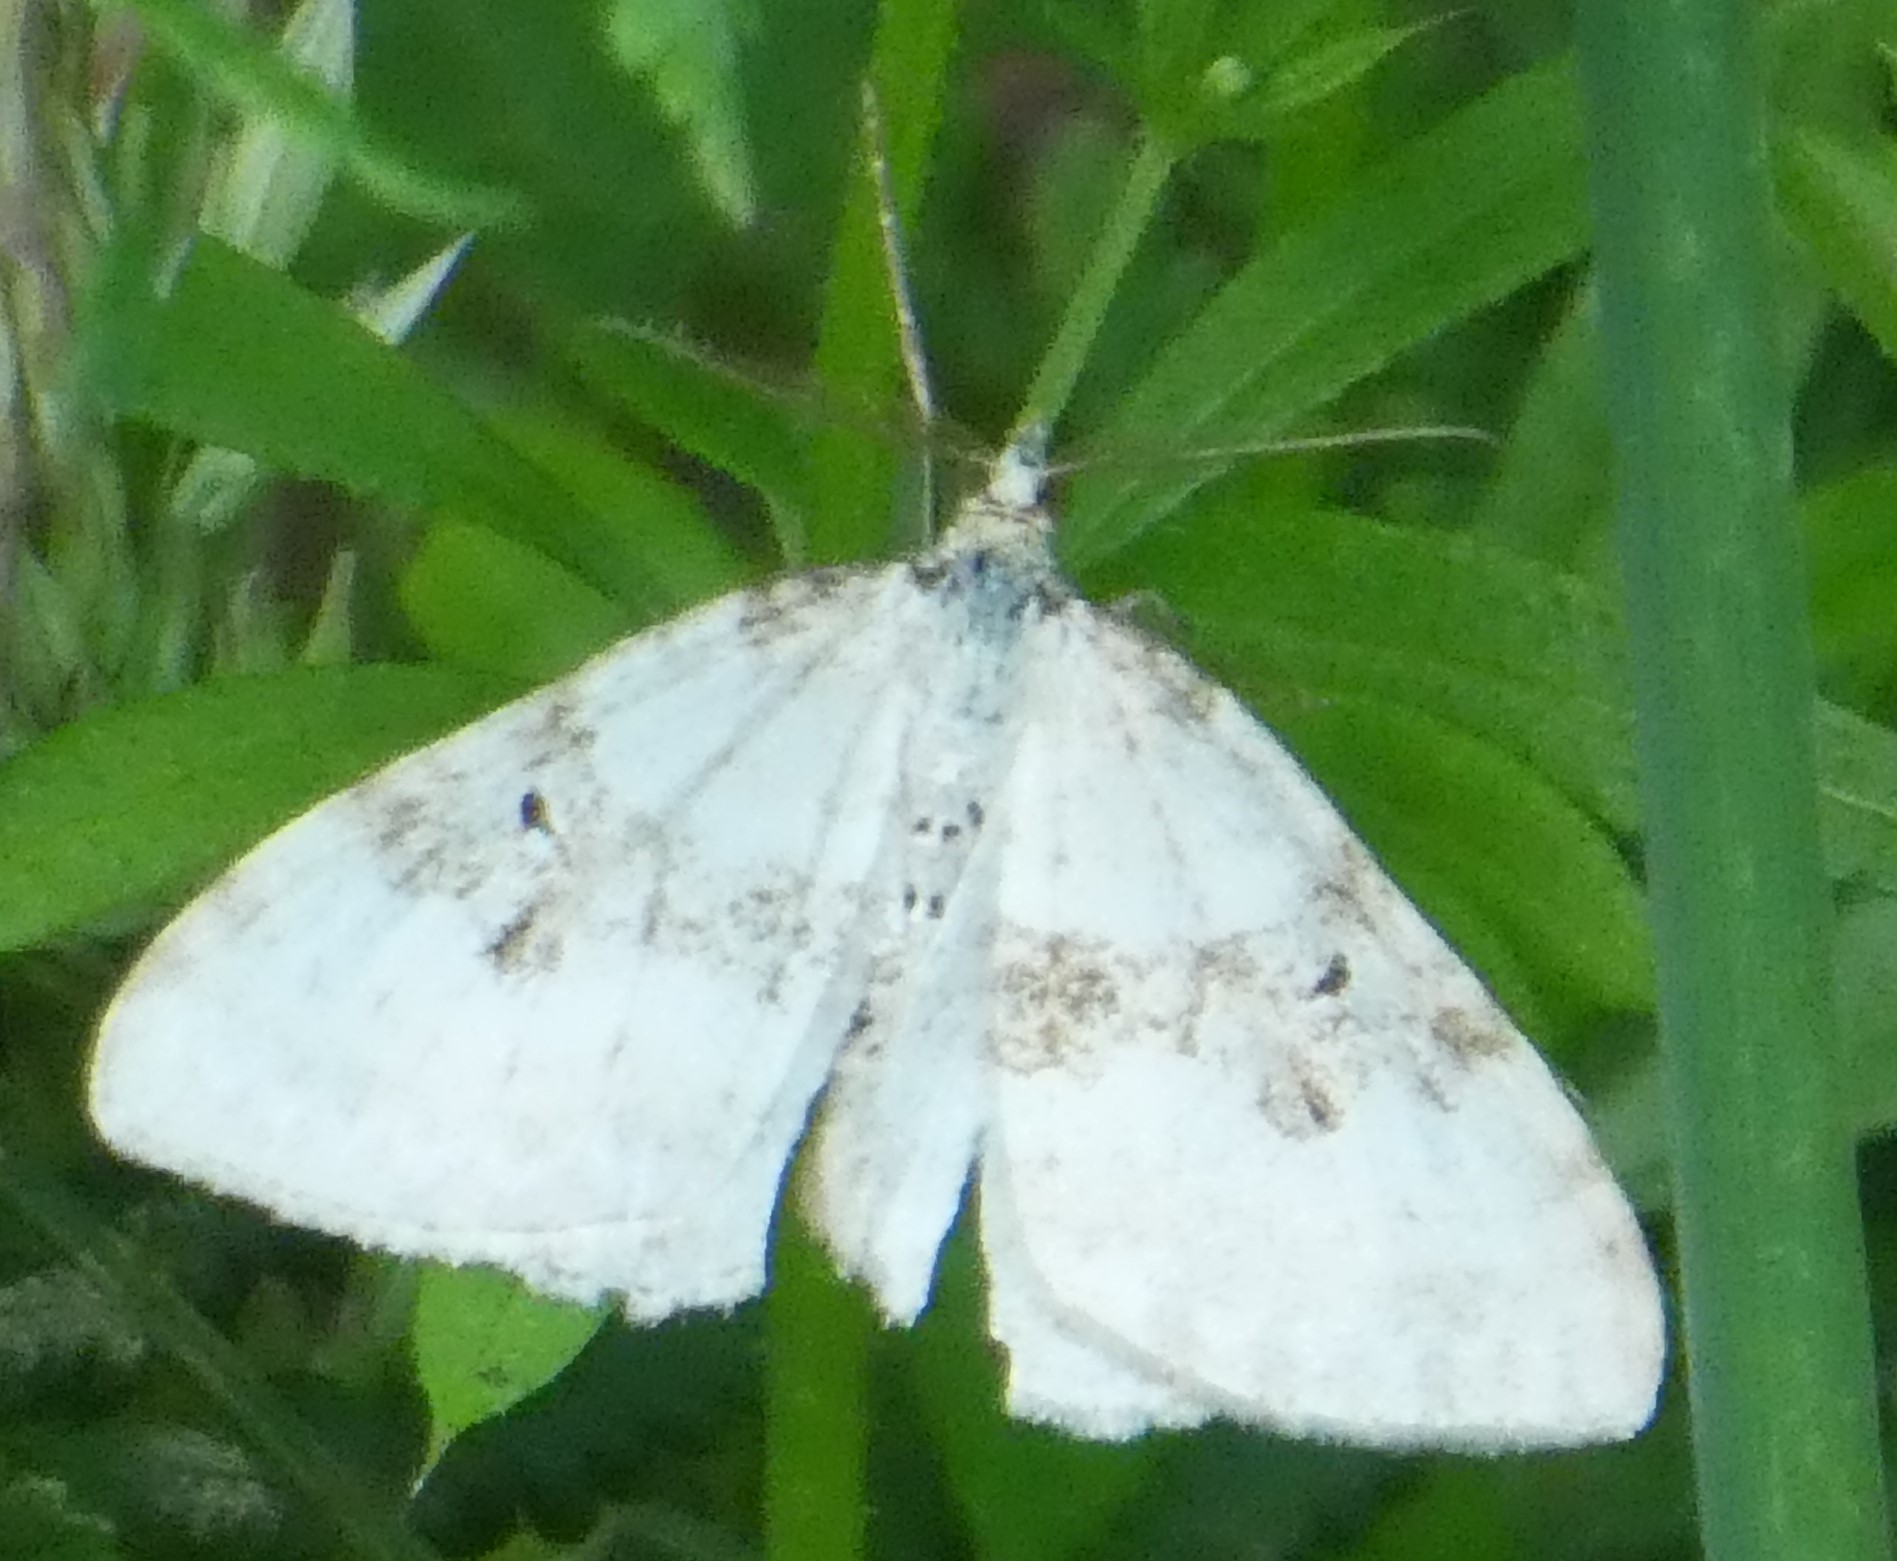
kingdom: Animalia
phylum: Arthropoda
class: Insecta
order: Lepidoptera
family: Geometridae
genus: Xanthorhoe
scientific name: Xanthorhoe montanata
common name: Silver-ground carpet
